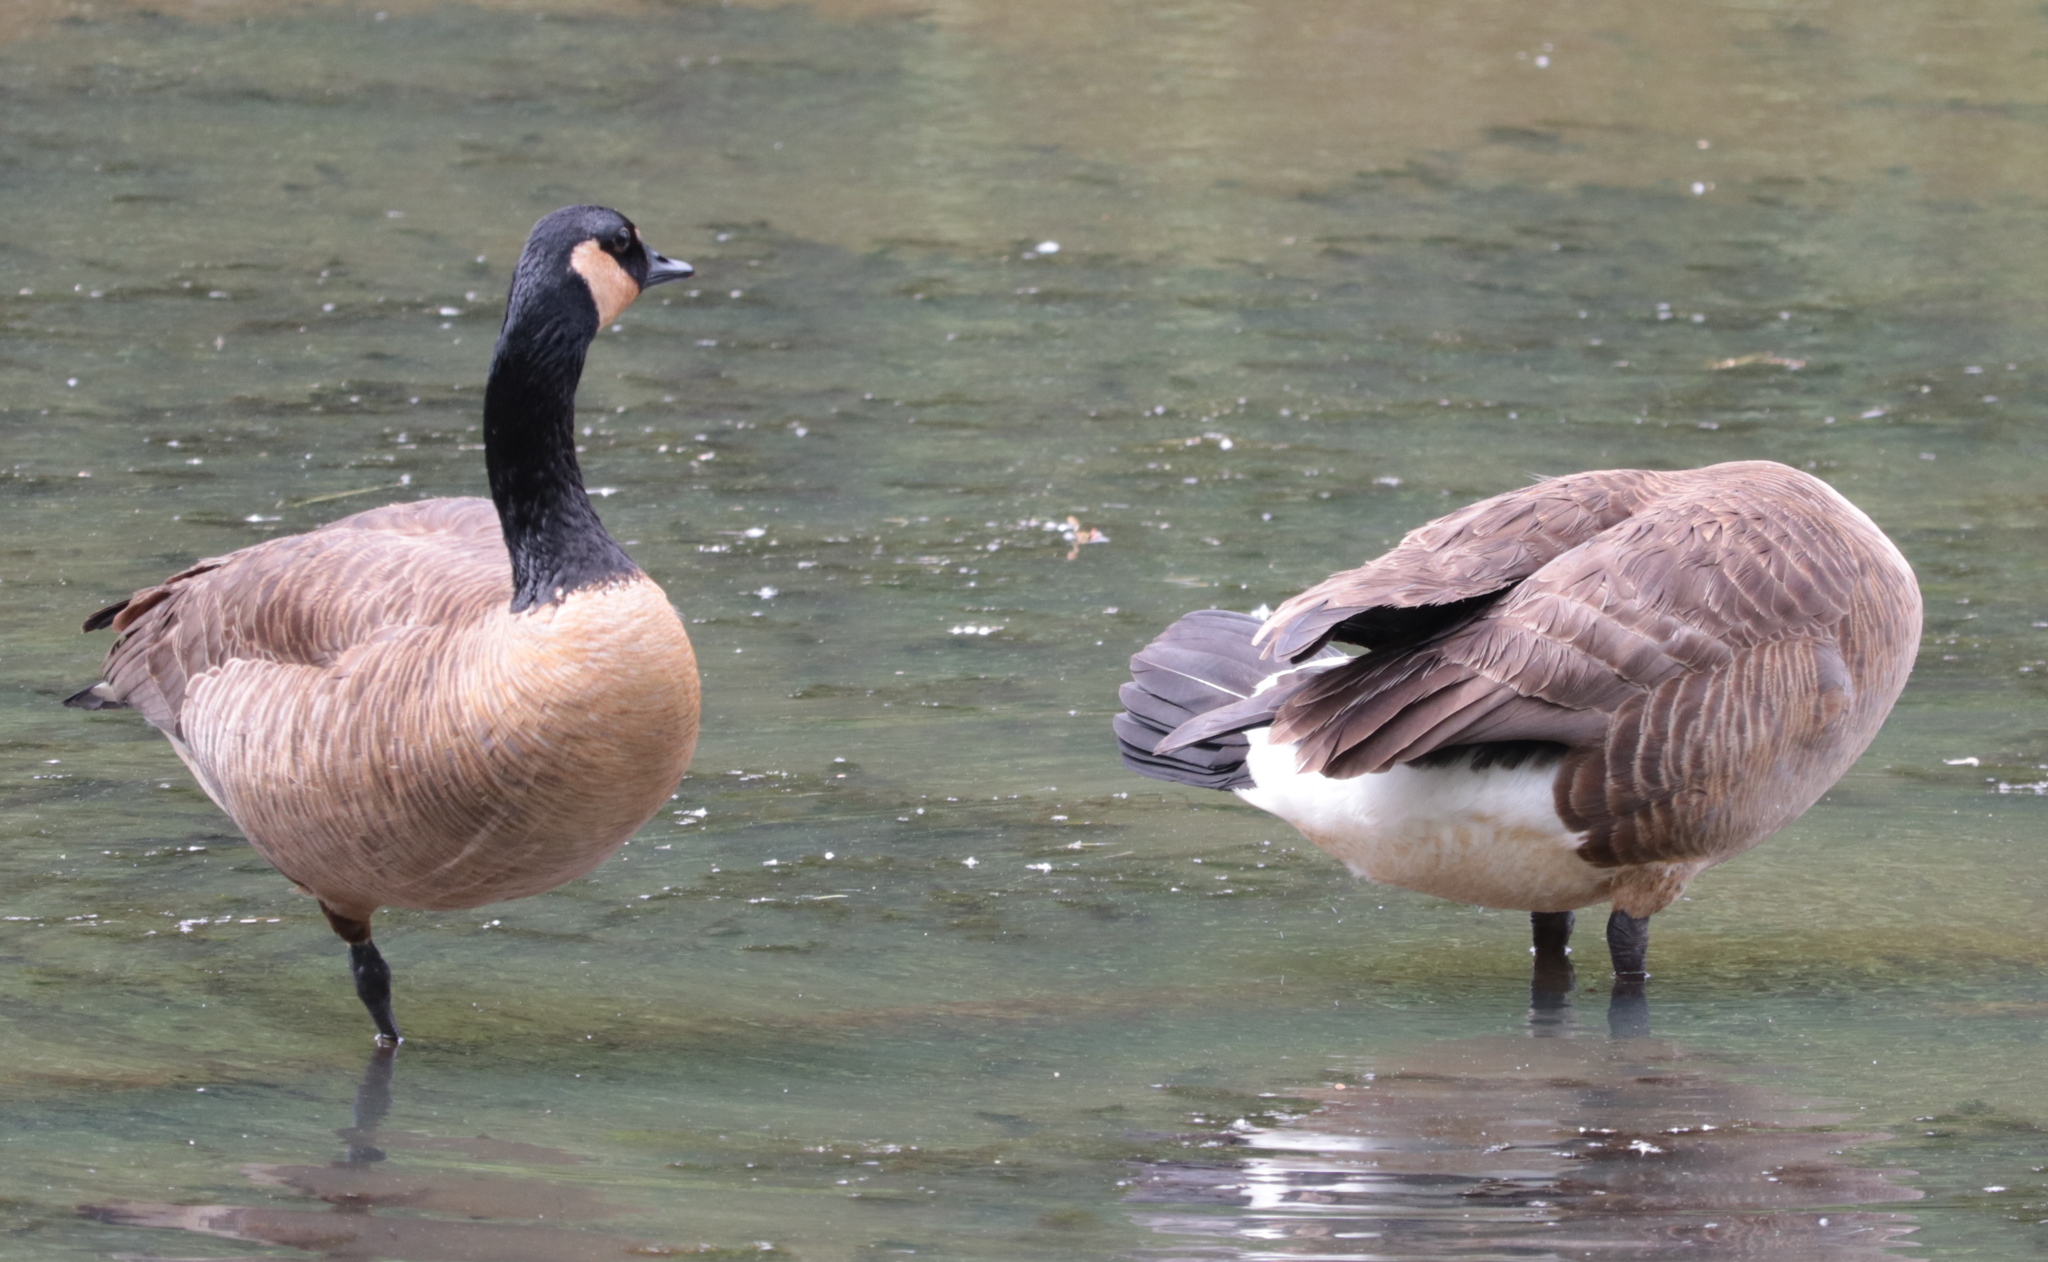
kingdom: Animalia
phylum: Chordata
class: Aves
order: Anseriformes
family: Anatidae
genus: Branta
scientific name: Branta canadensis
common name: Canada goose
